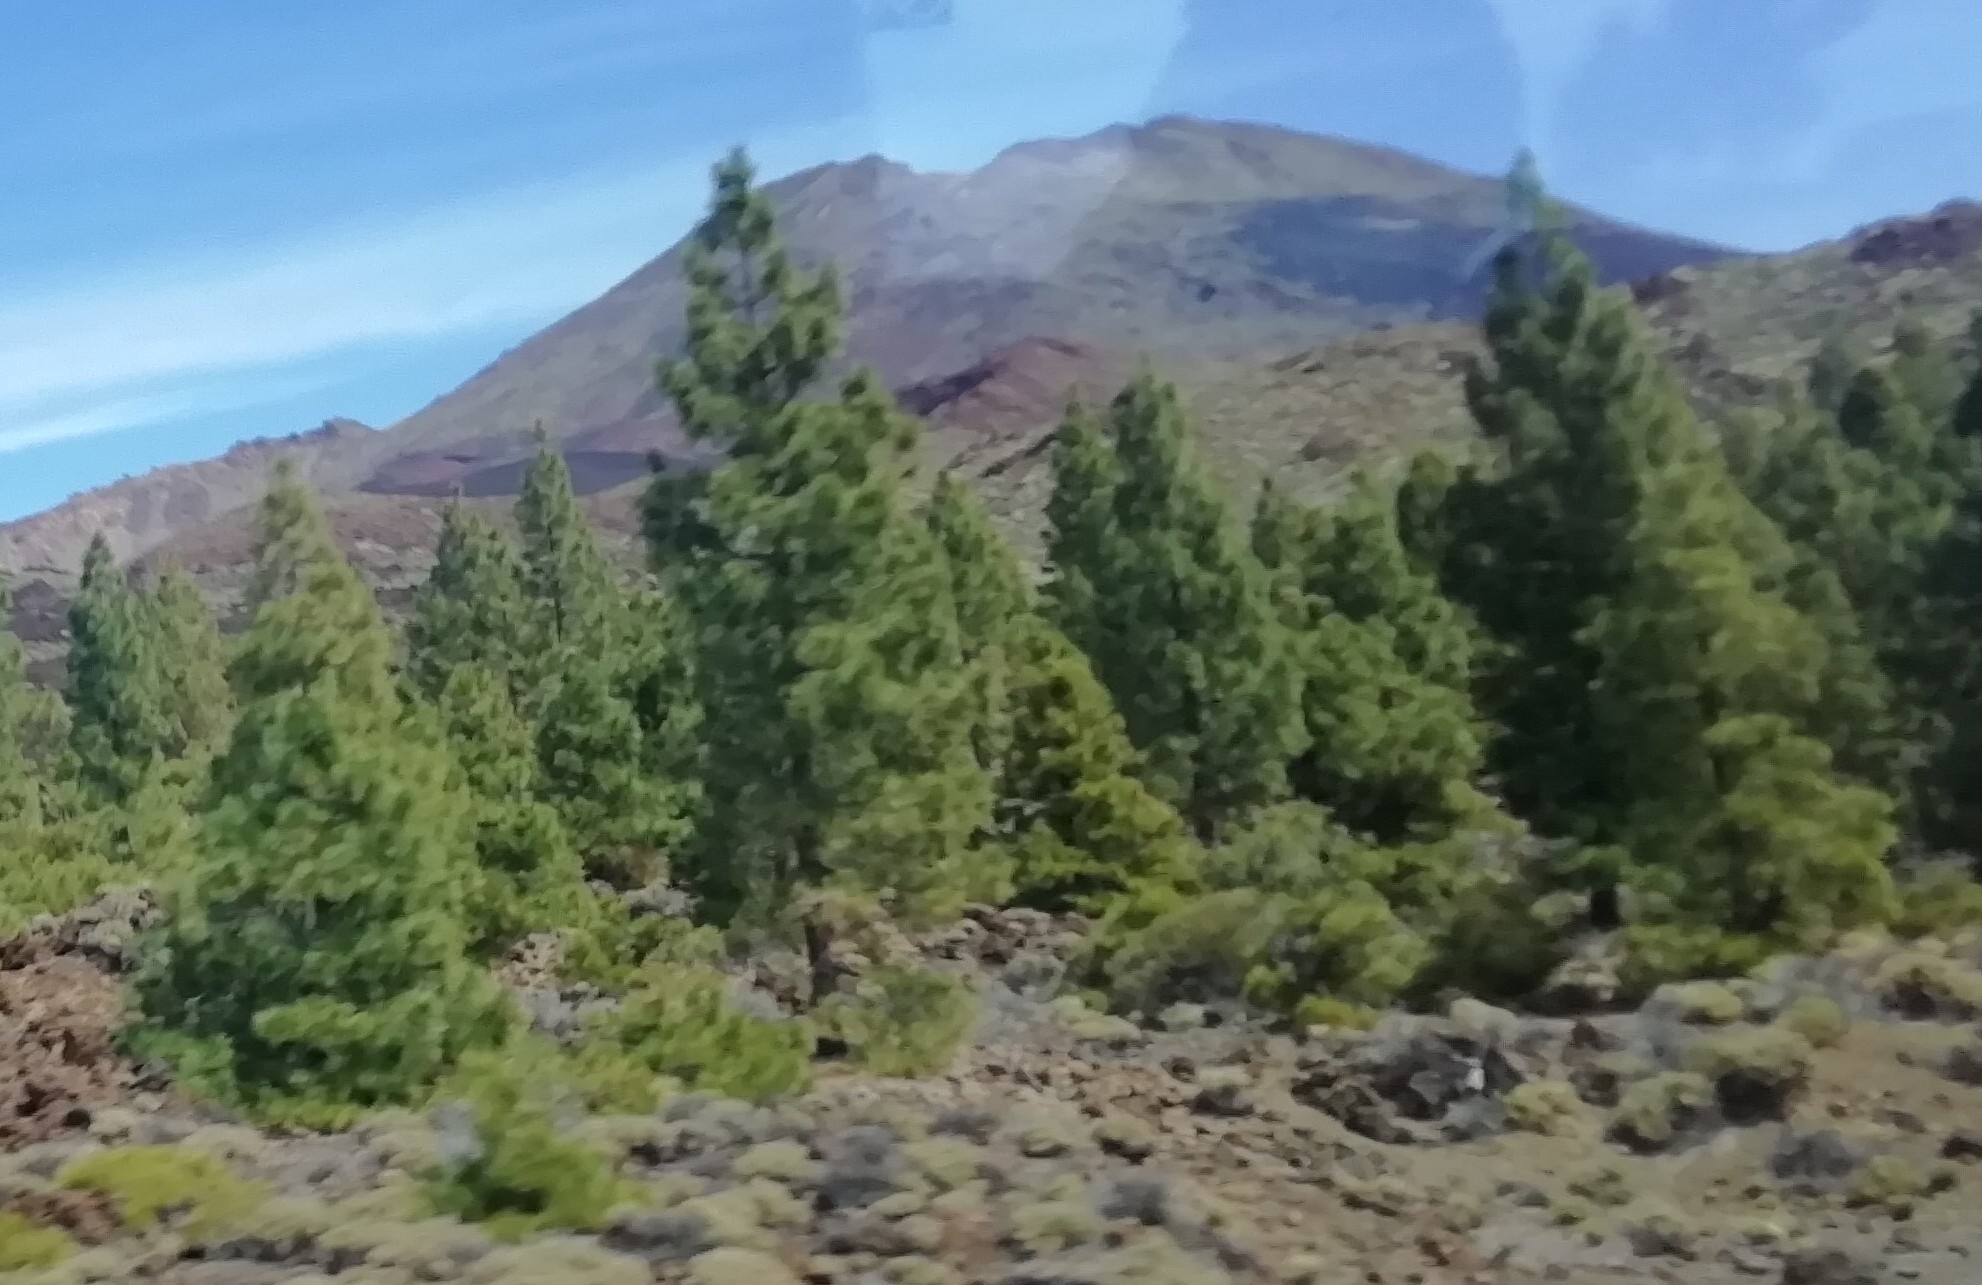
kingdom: Plantae
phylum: Tracheophyta
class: Pinopsida
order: Pinales
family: Pinaceae
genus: Pinus
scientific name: Pinus canariensis
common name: Canary islands pine
